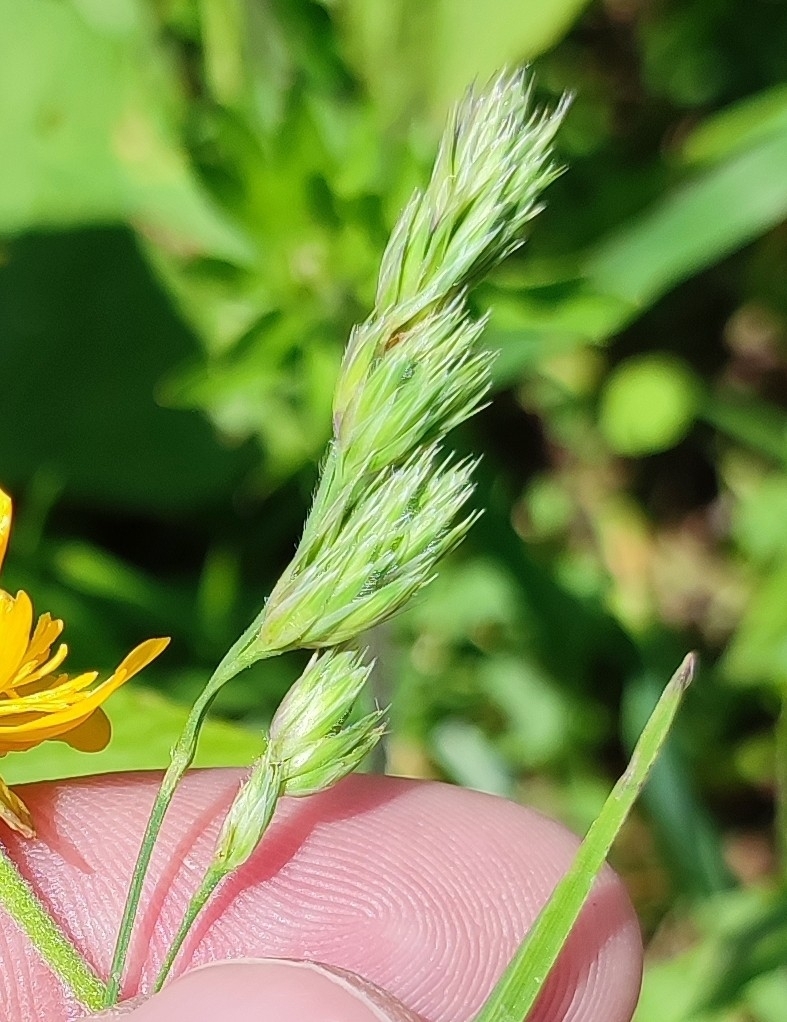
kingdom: Plantae
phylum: Tracheophyta
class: Liliopsida
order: Poales
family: Poaceae
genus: Dactylis
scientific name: Dactylis glomerata
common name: Orchardgrass
